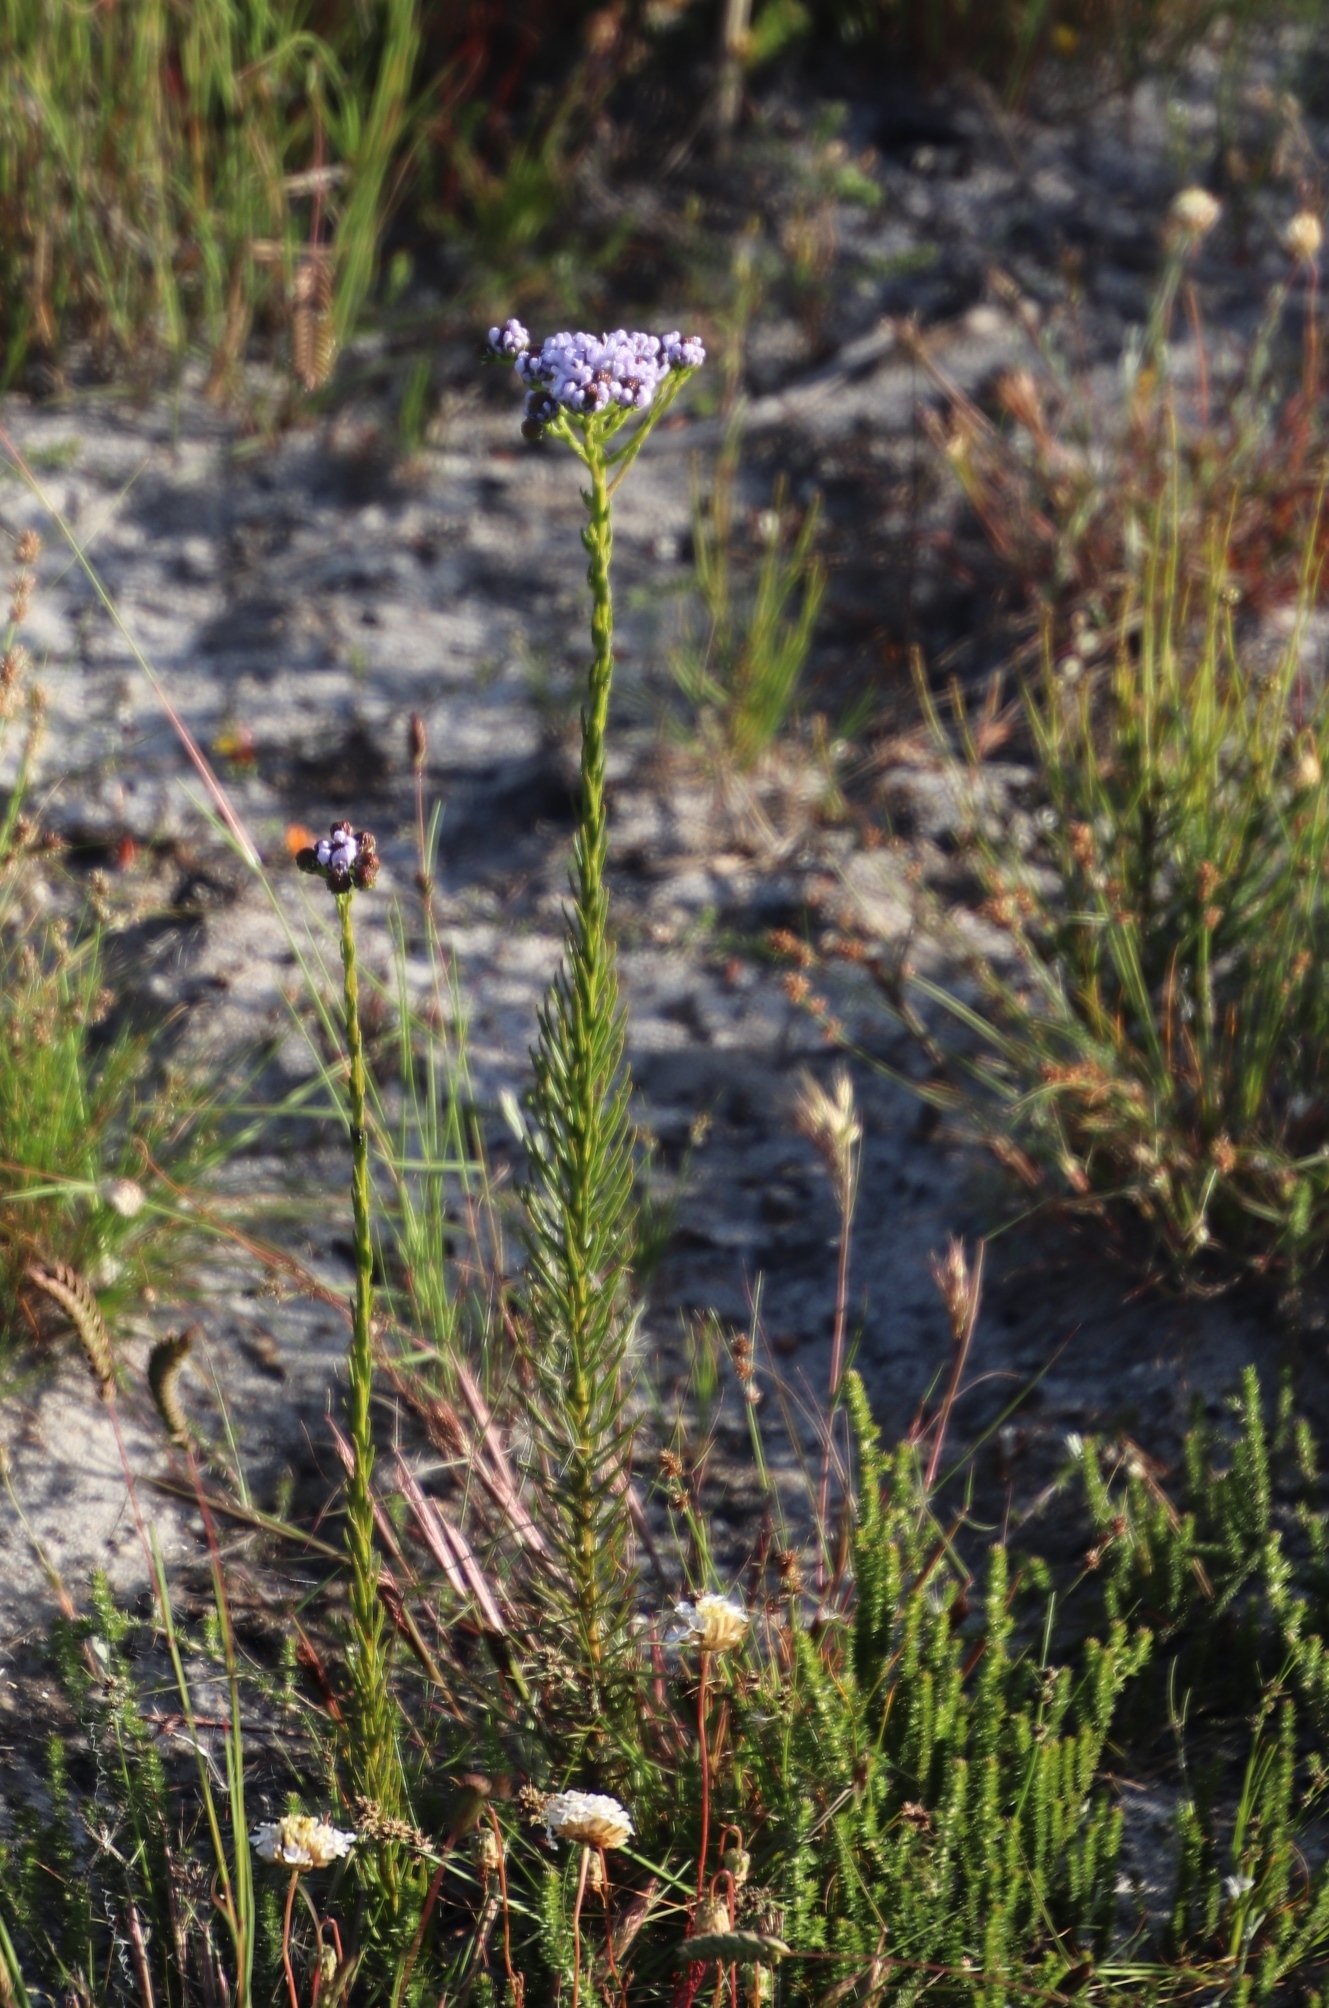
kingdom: Plantae
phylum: Tracheophyta
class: Magnoliopsida
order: Lamiales
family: Scrophulariaceae
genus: Pseudoselago
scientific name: Pseudoselago spuria
